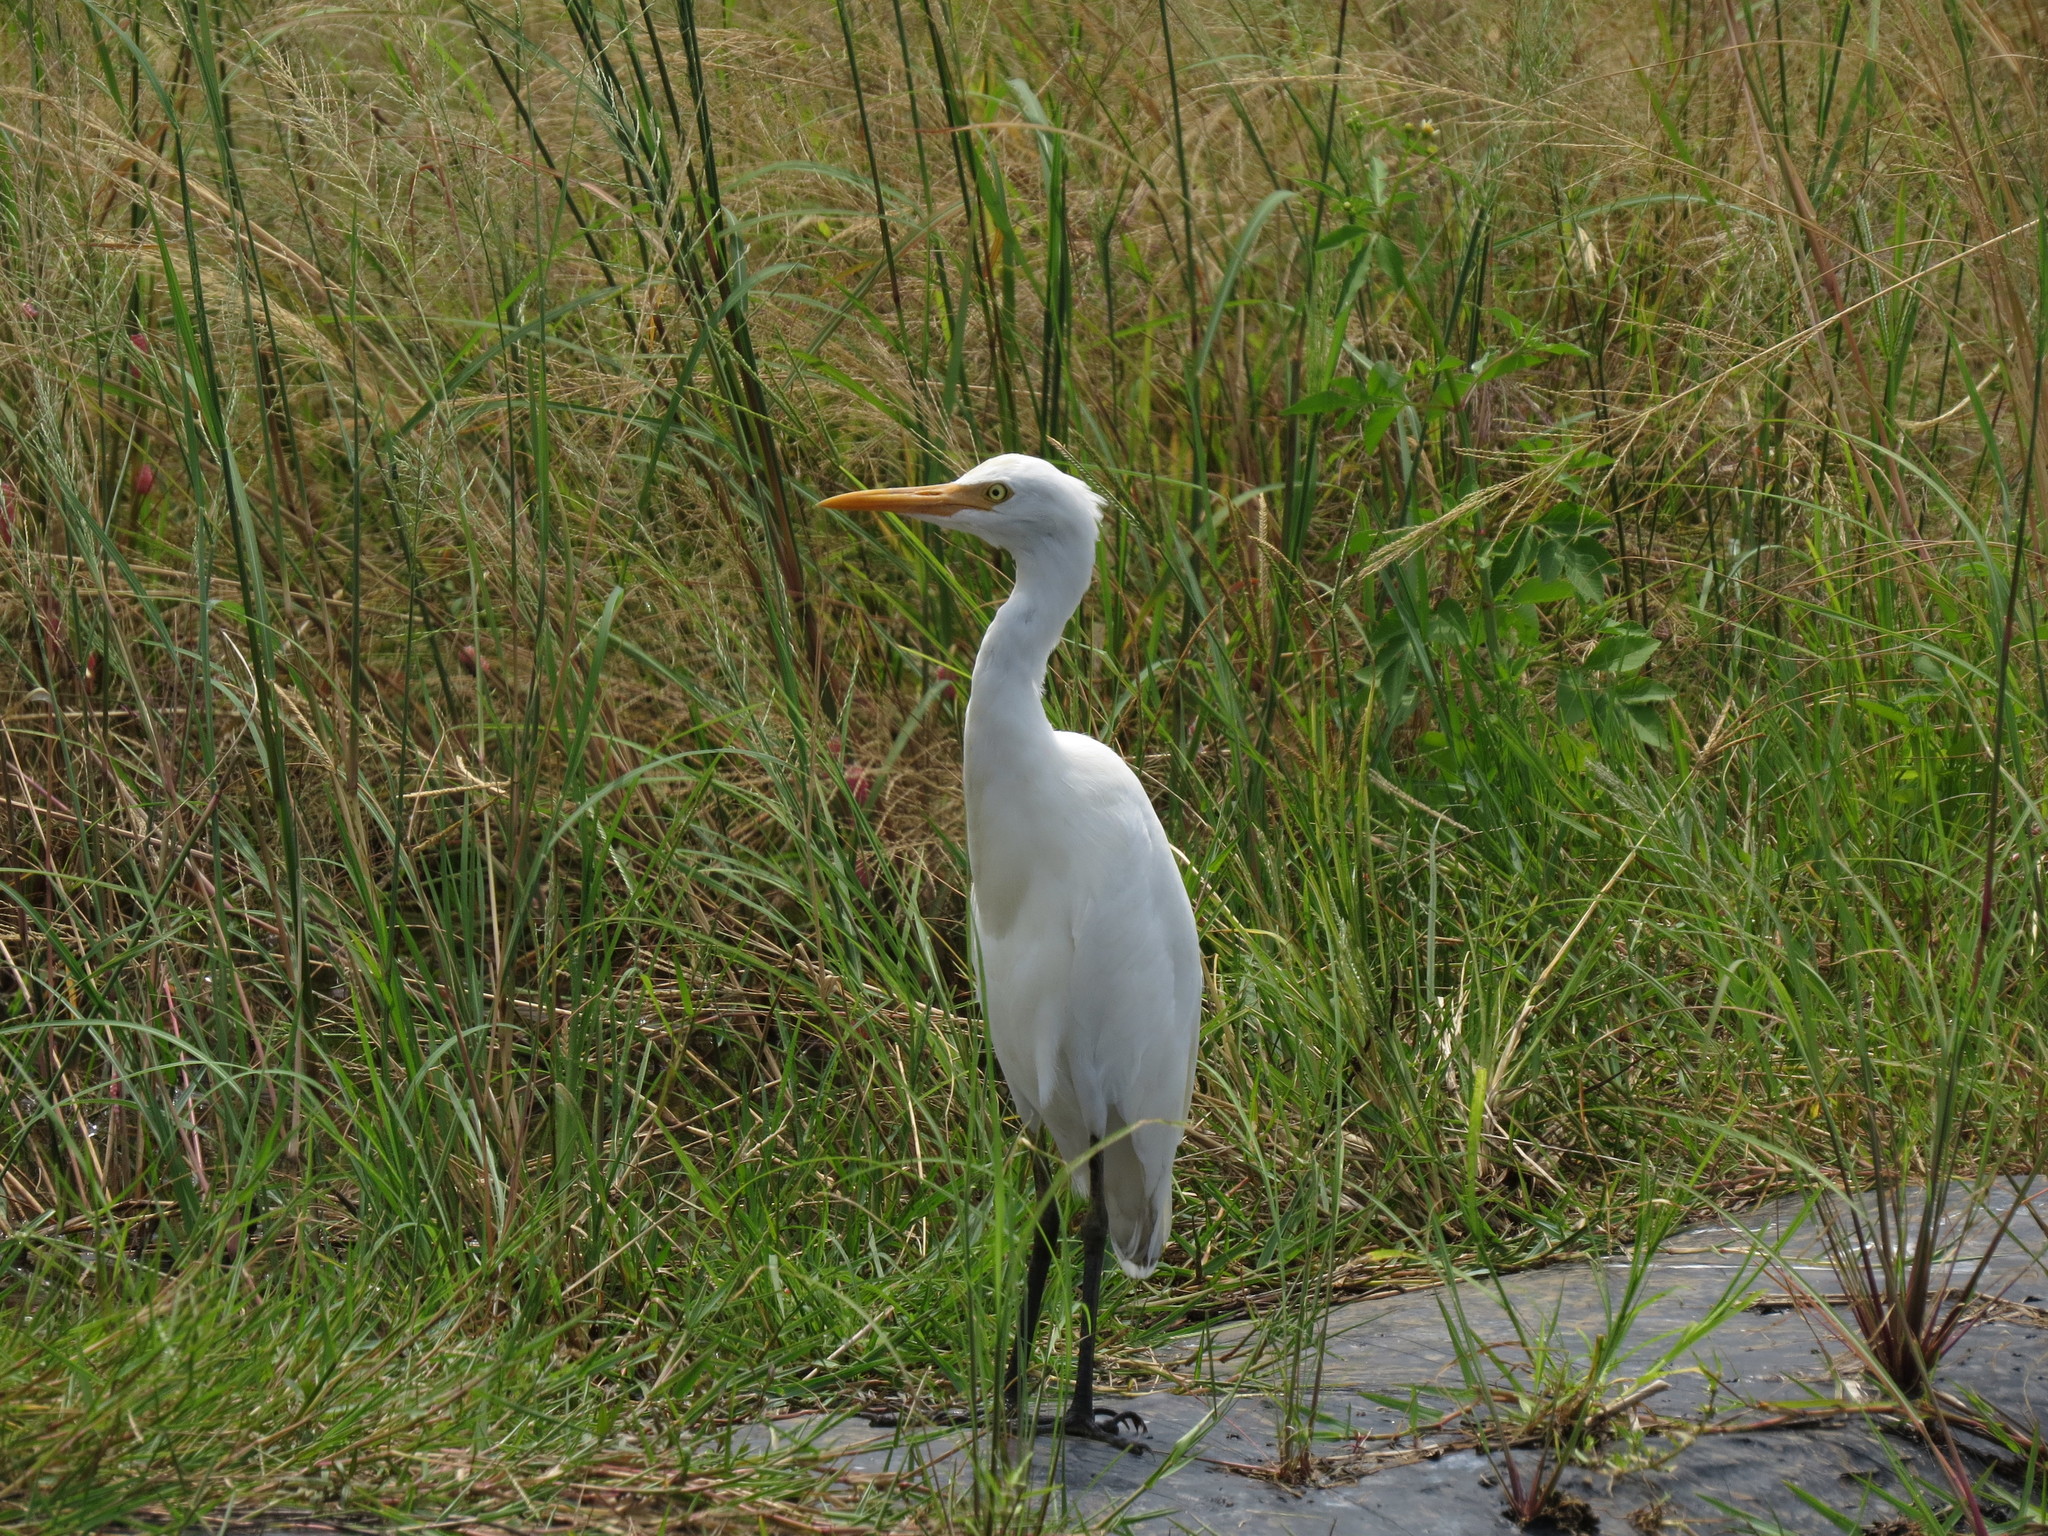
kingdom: Animalia
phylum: Chordata
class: Aves
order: Pelecaniformes
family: Ardeidae
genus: Bubulcus
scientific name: Bubulcus coromandus
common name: Eastern cattle egret
